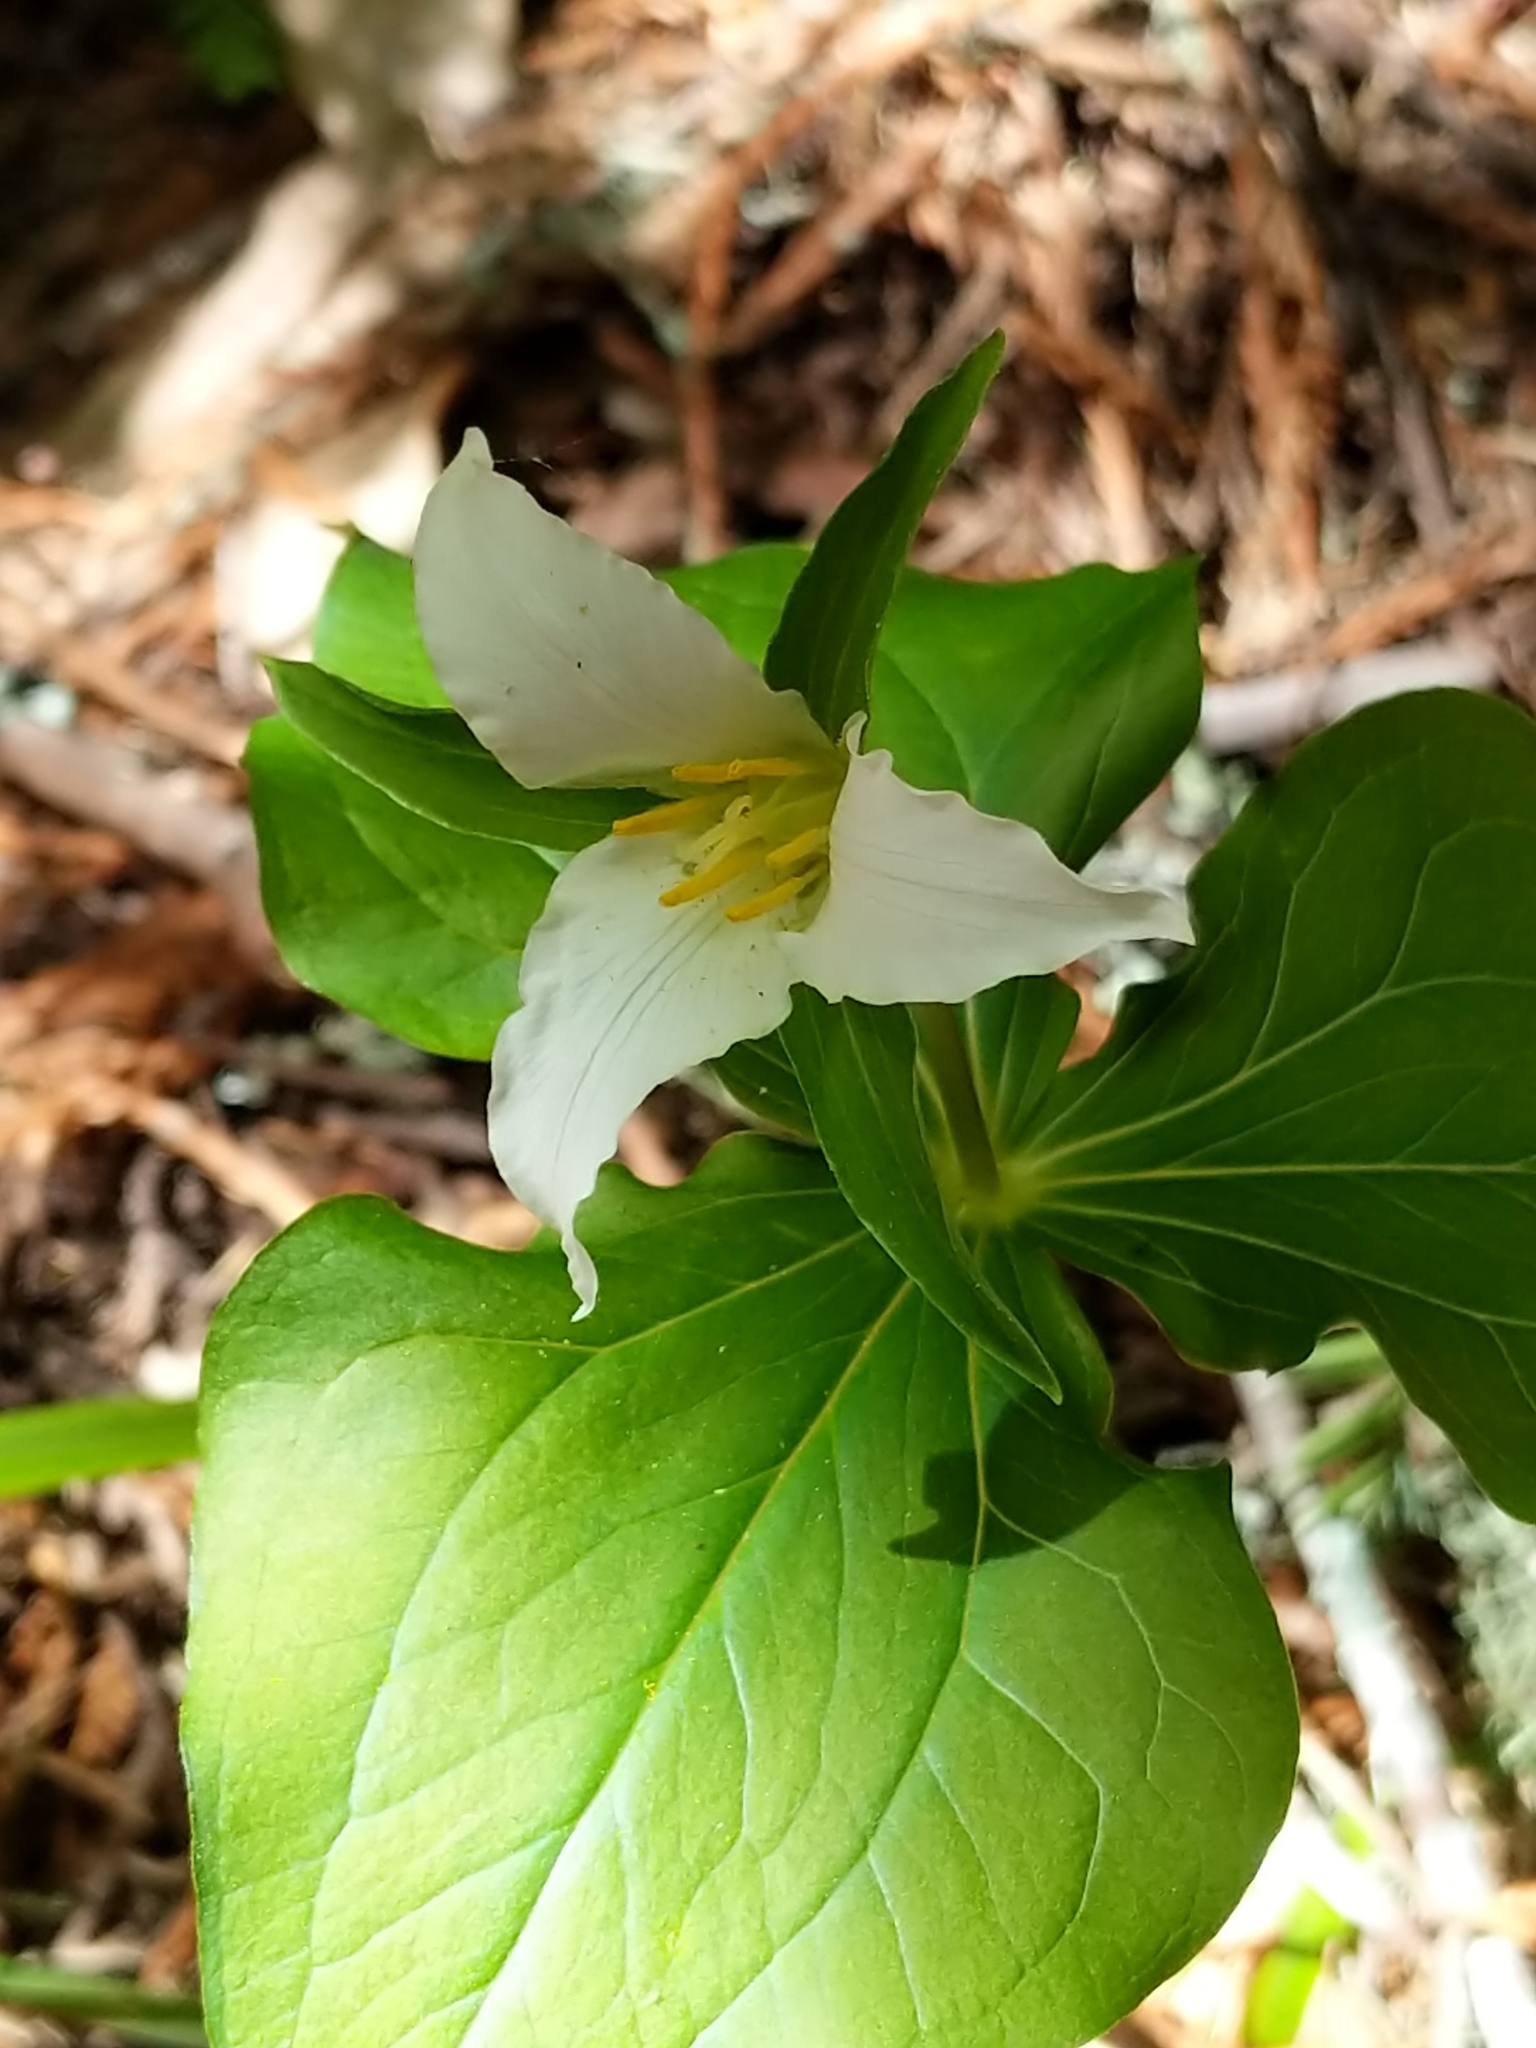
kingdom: Plantae
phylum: Tracheophyta
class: Liliopsida
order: Liliales
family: Melanthiaceae
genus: Trillium
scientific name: Trillium ovatum
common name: Pacific trillium
